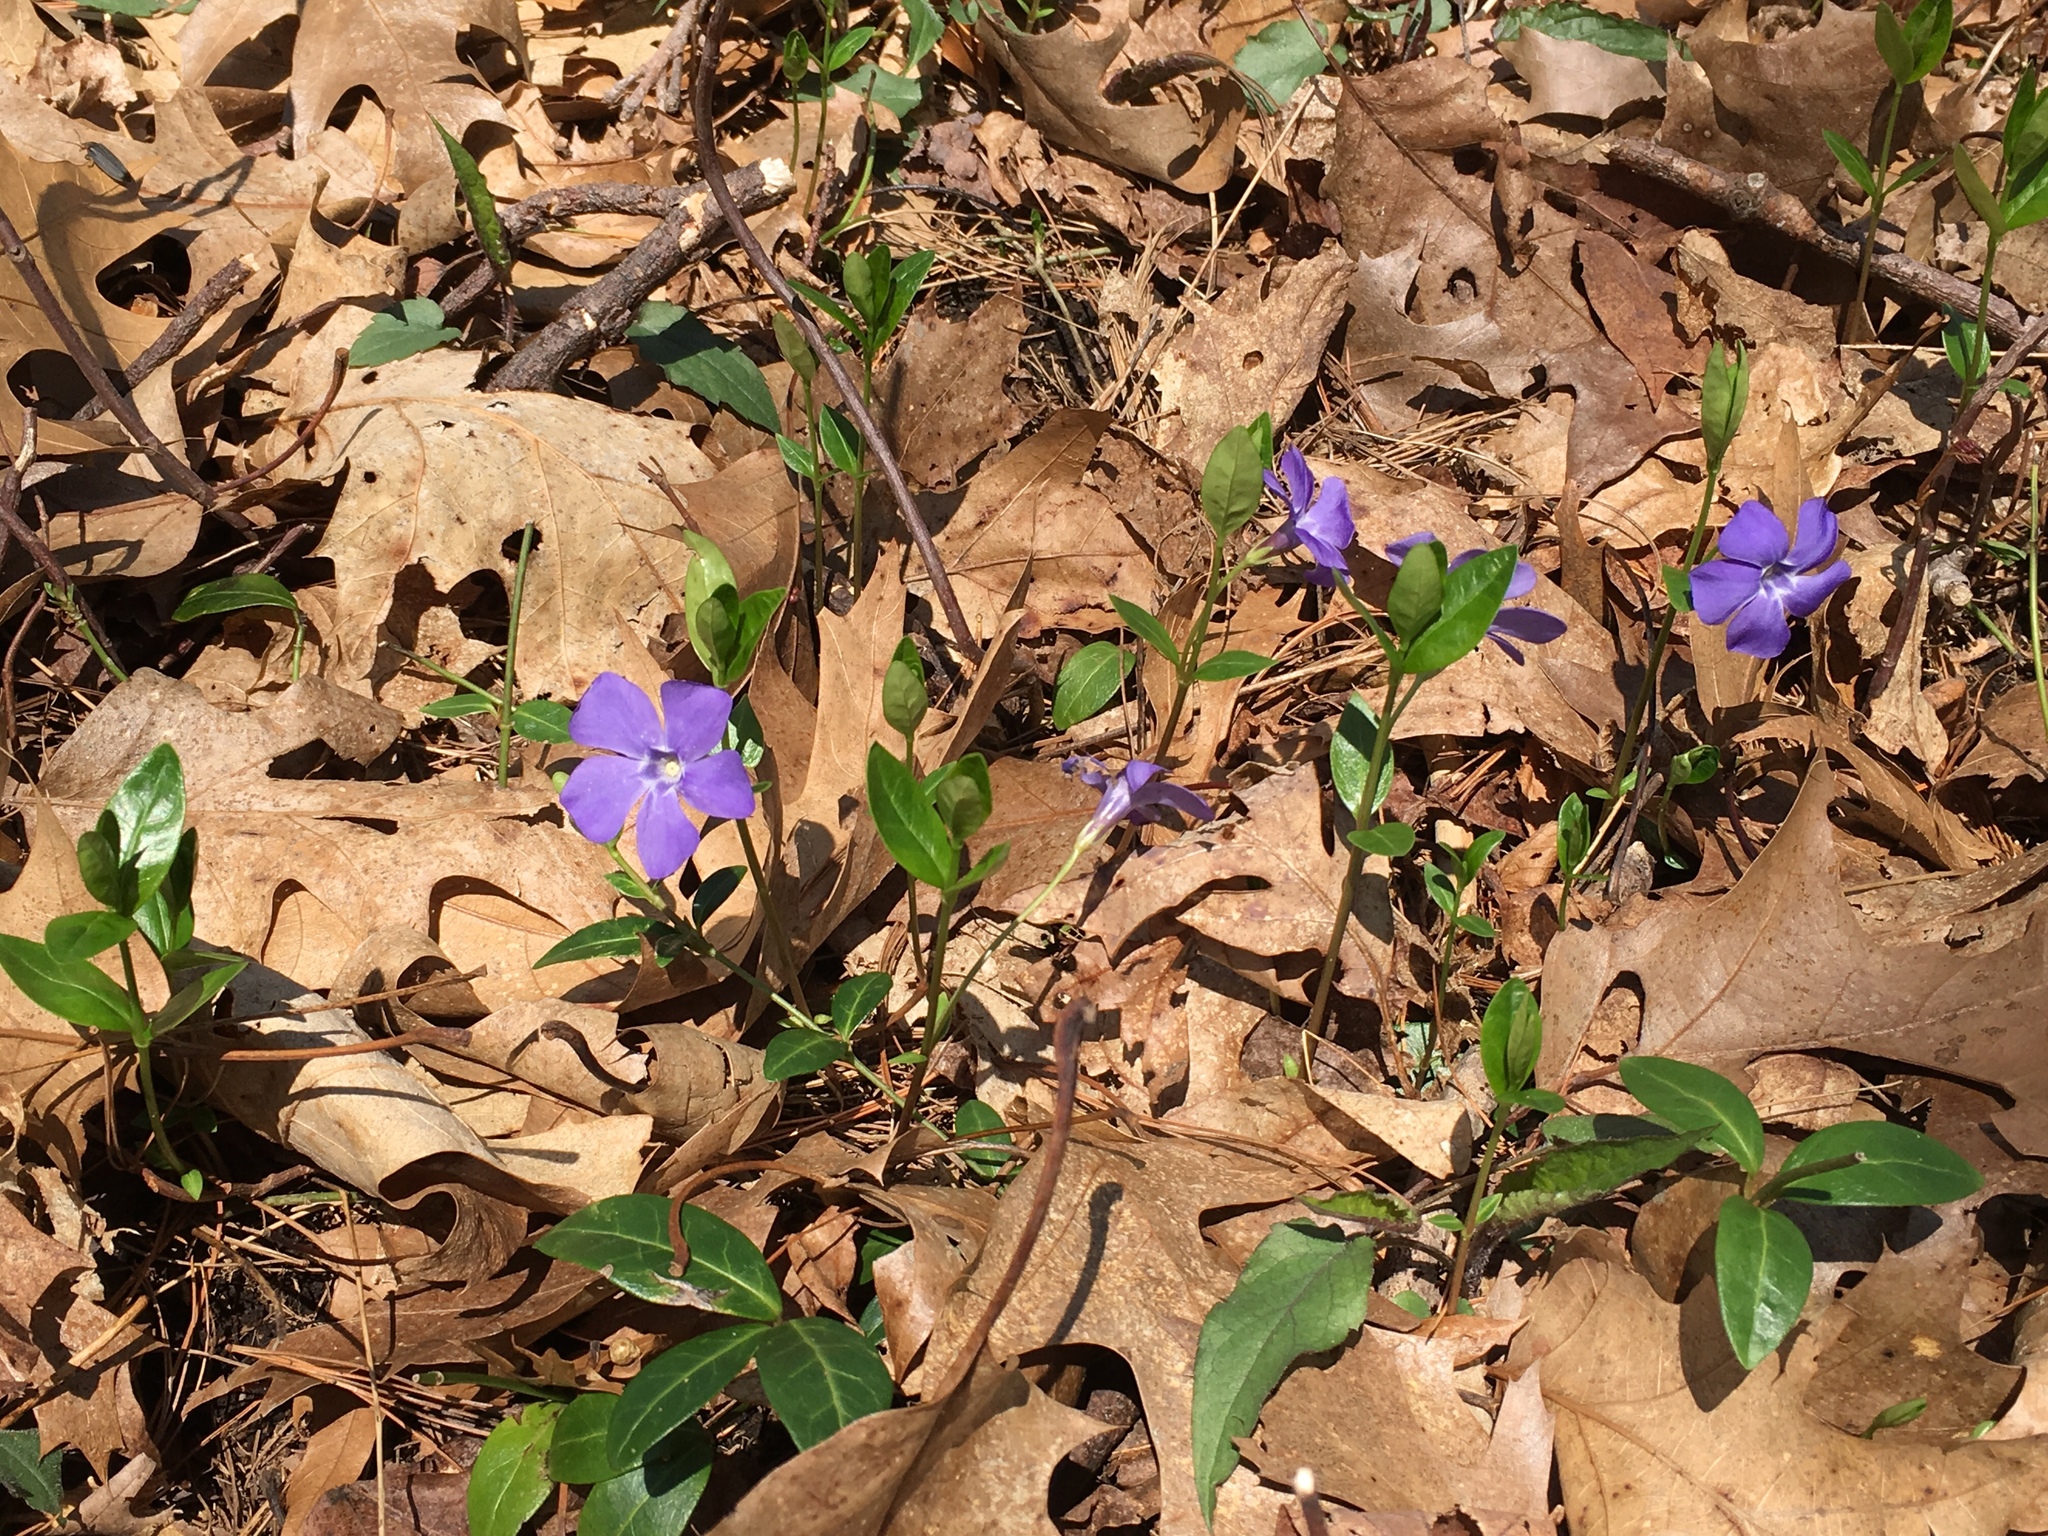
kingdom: Plantae
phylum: Tracheophyta
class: Magnoliopsida
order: Gentianales
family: Apocynaceae
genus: Vinca
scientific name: Vinca minor
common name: Lesser periwinkle
